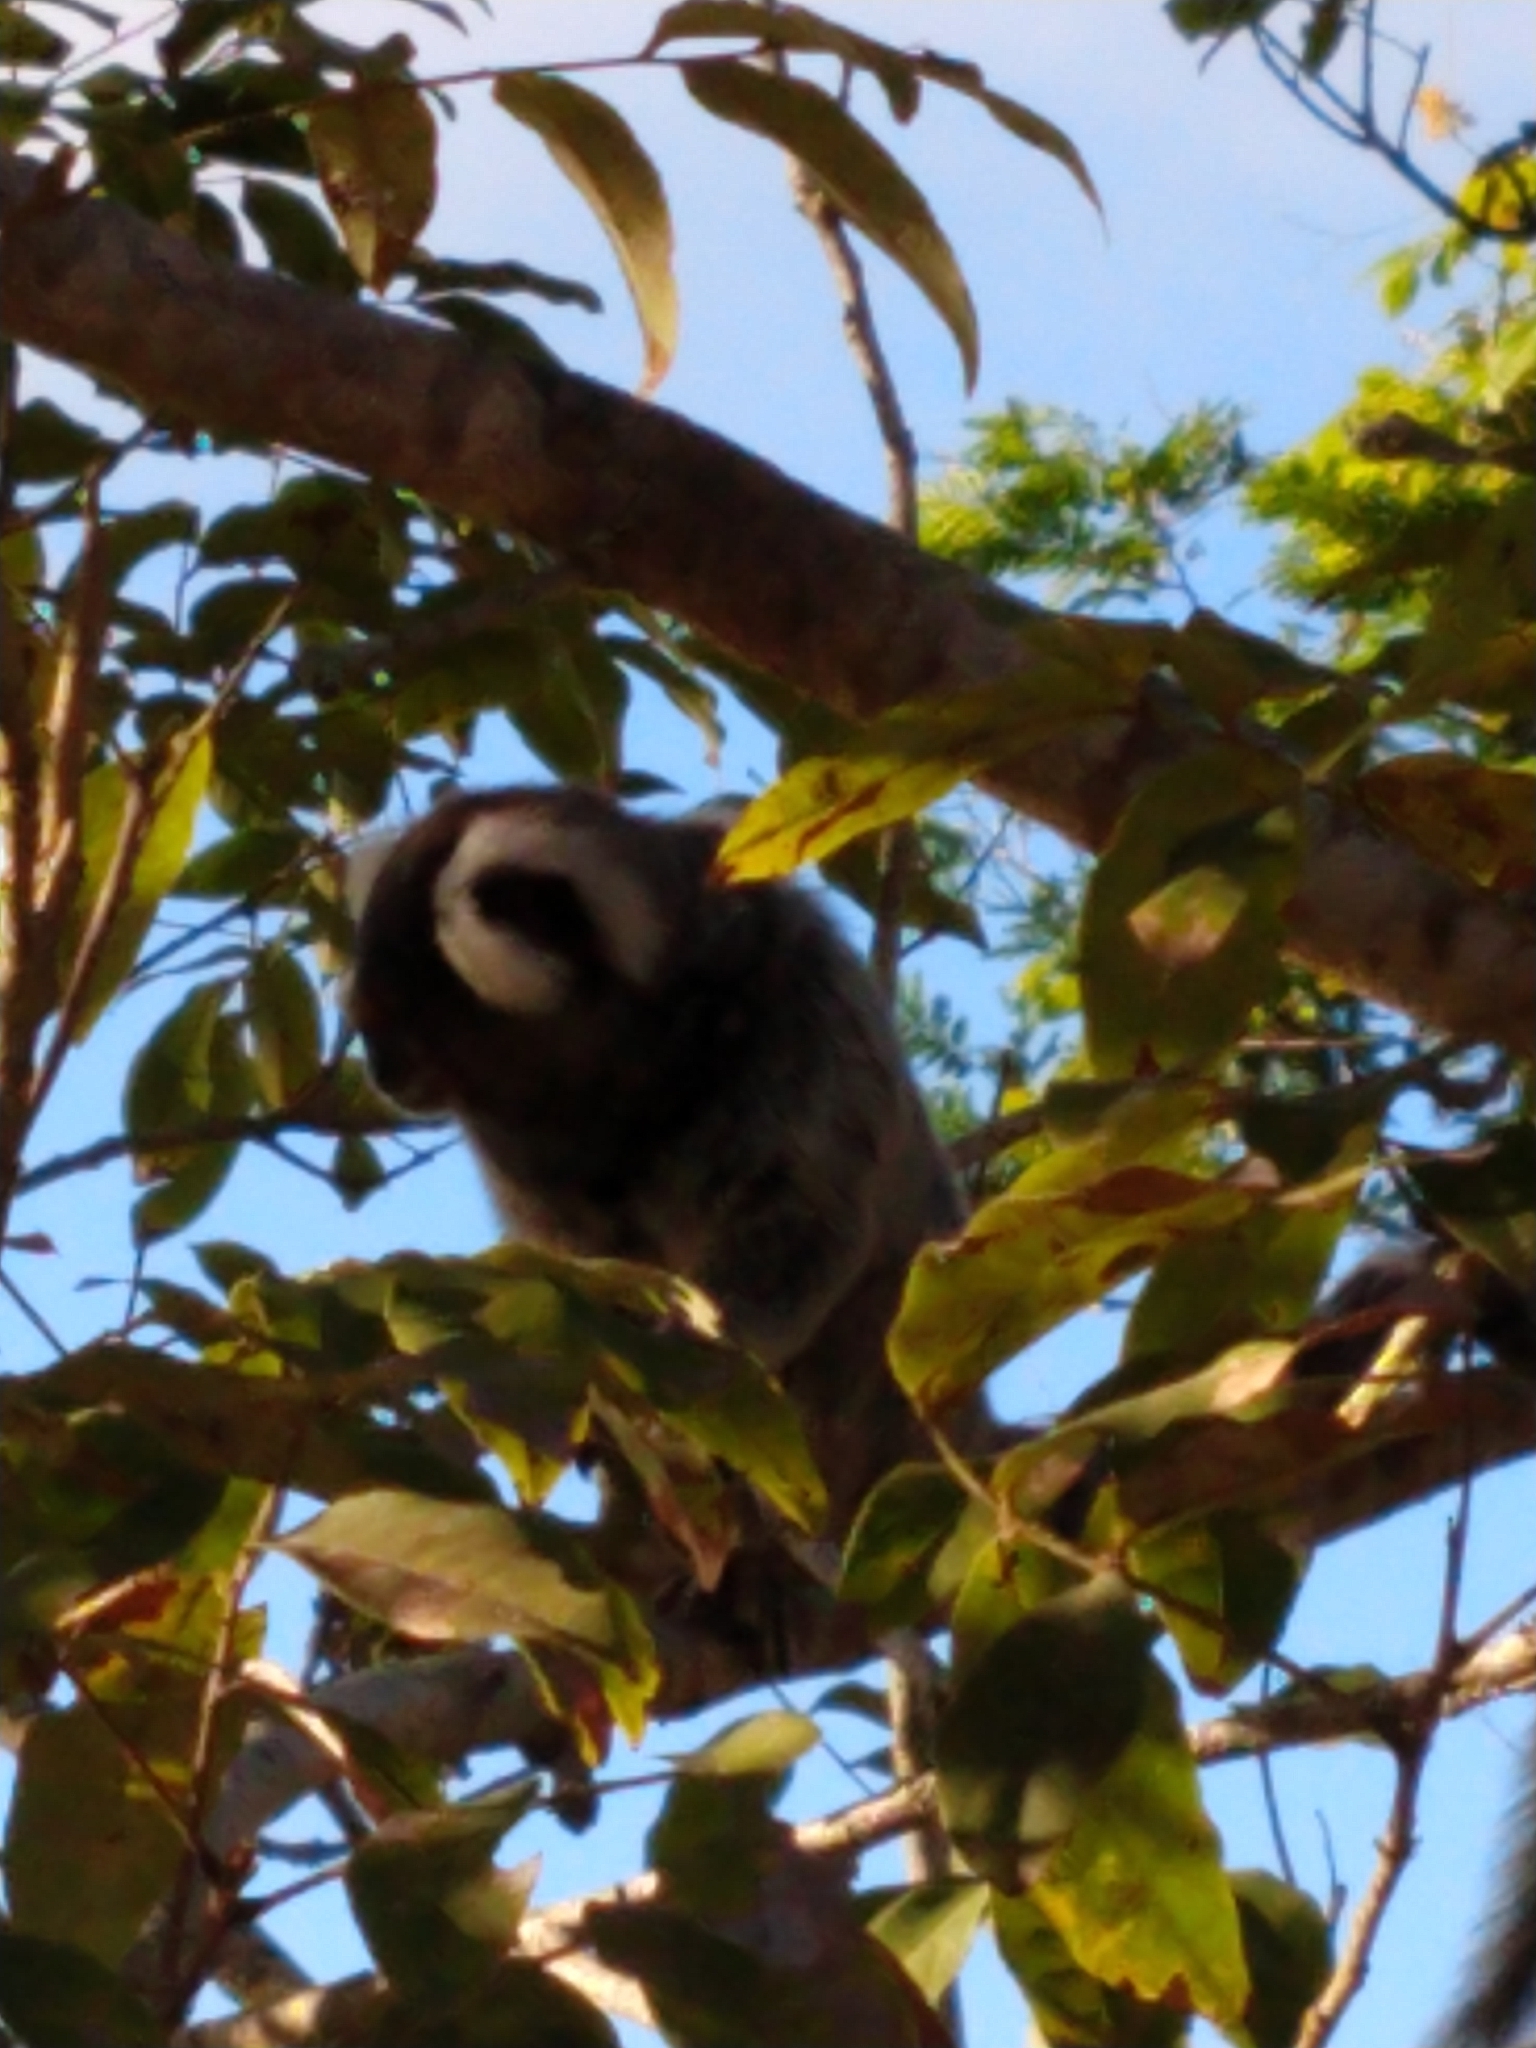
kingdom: Animalia
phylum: Chordata
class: Mammalia
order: Primates
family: Callitrichidae
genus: Callithrix
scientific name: Callithrix jacchus
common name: Common marmoset
